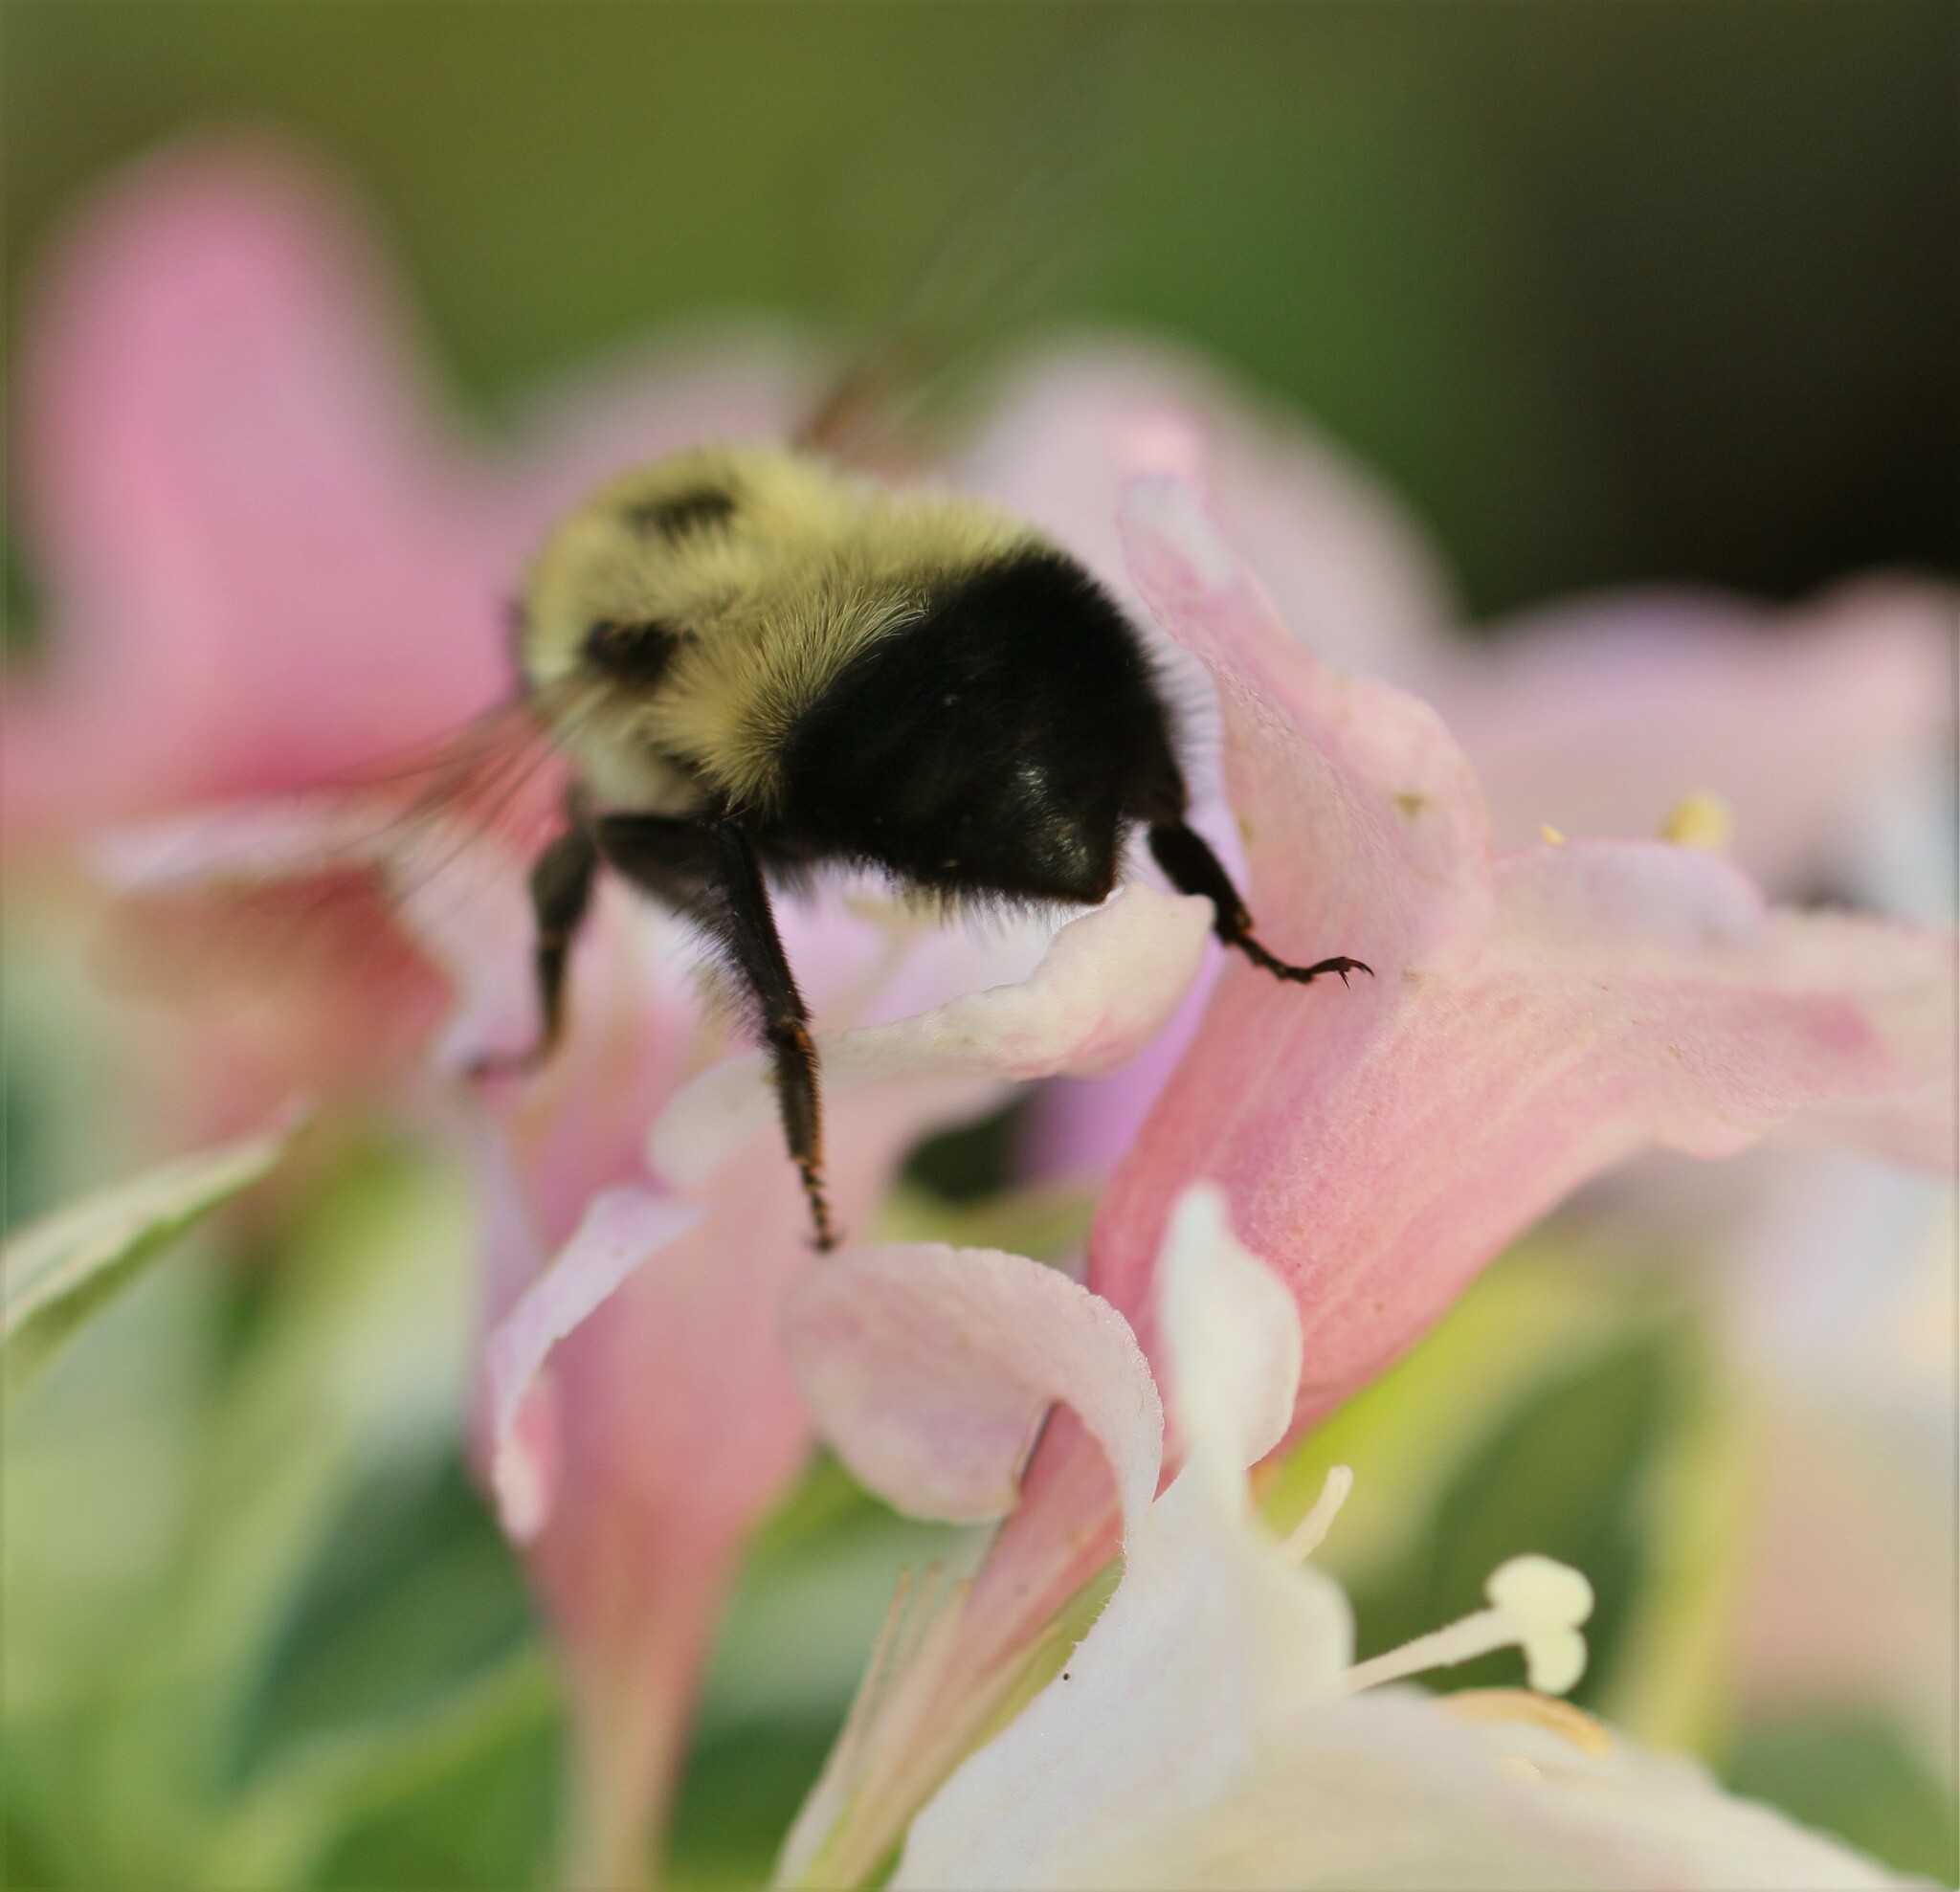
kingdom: Animalia
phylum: Arthropoda
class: Insecta
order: Hymenoptera
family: Apidae
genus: Bombus
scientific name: Bombus vagans
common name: Half-black bumble bee
